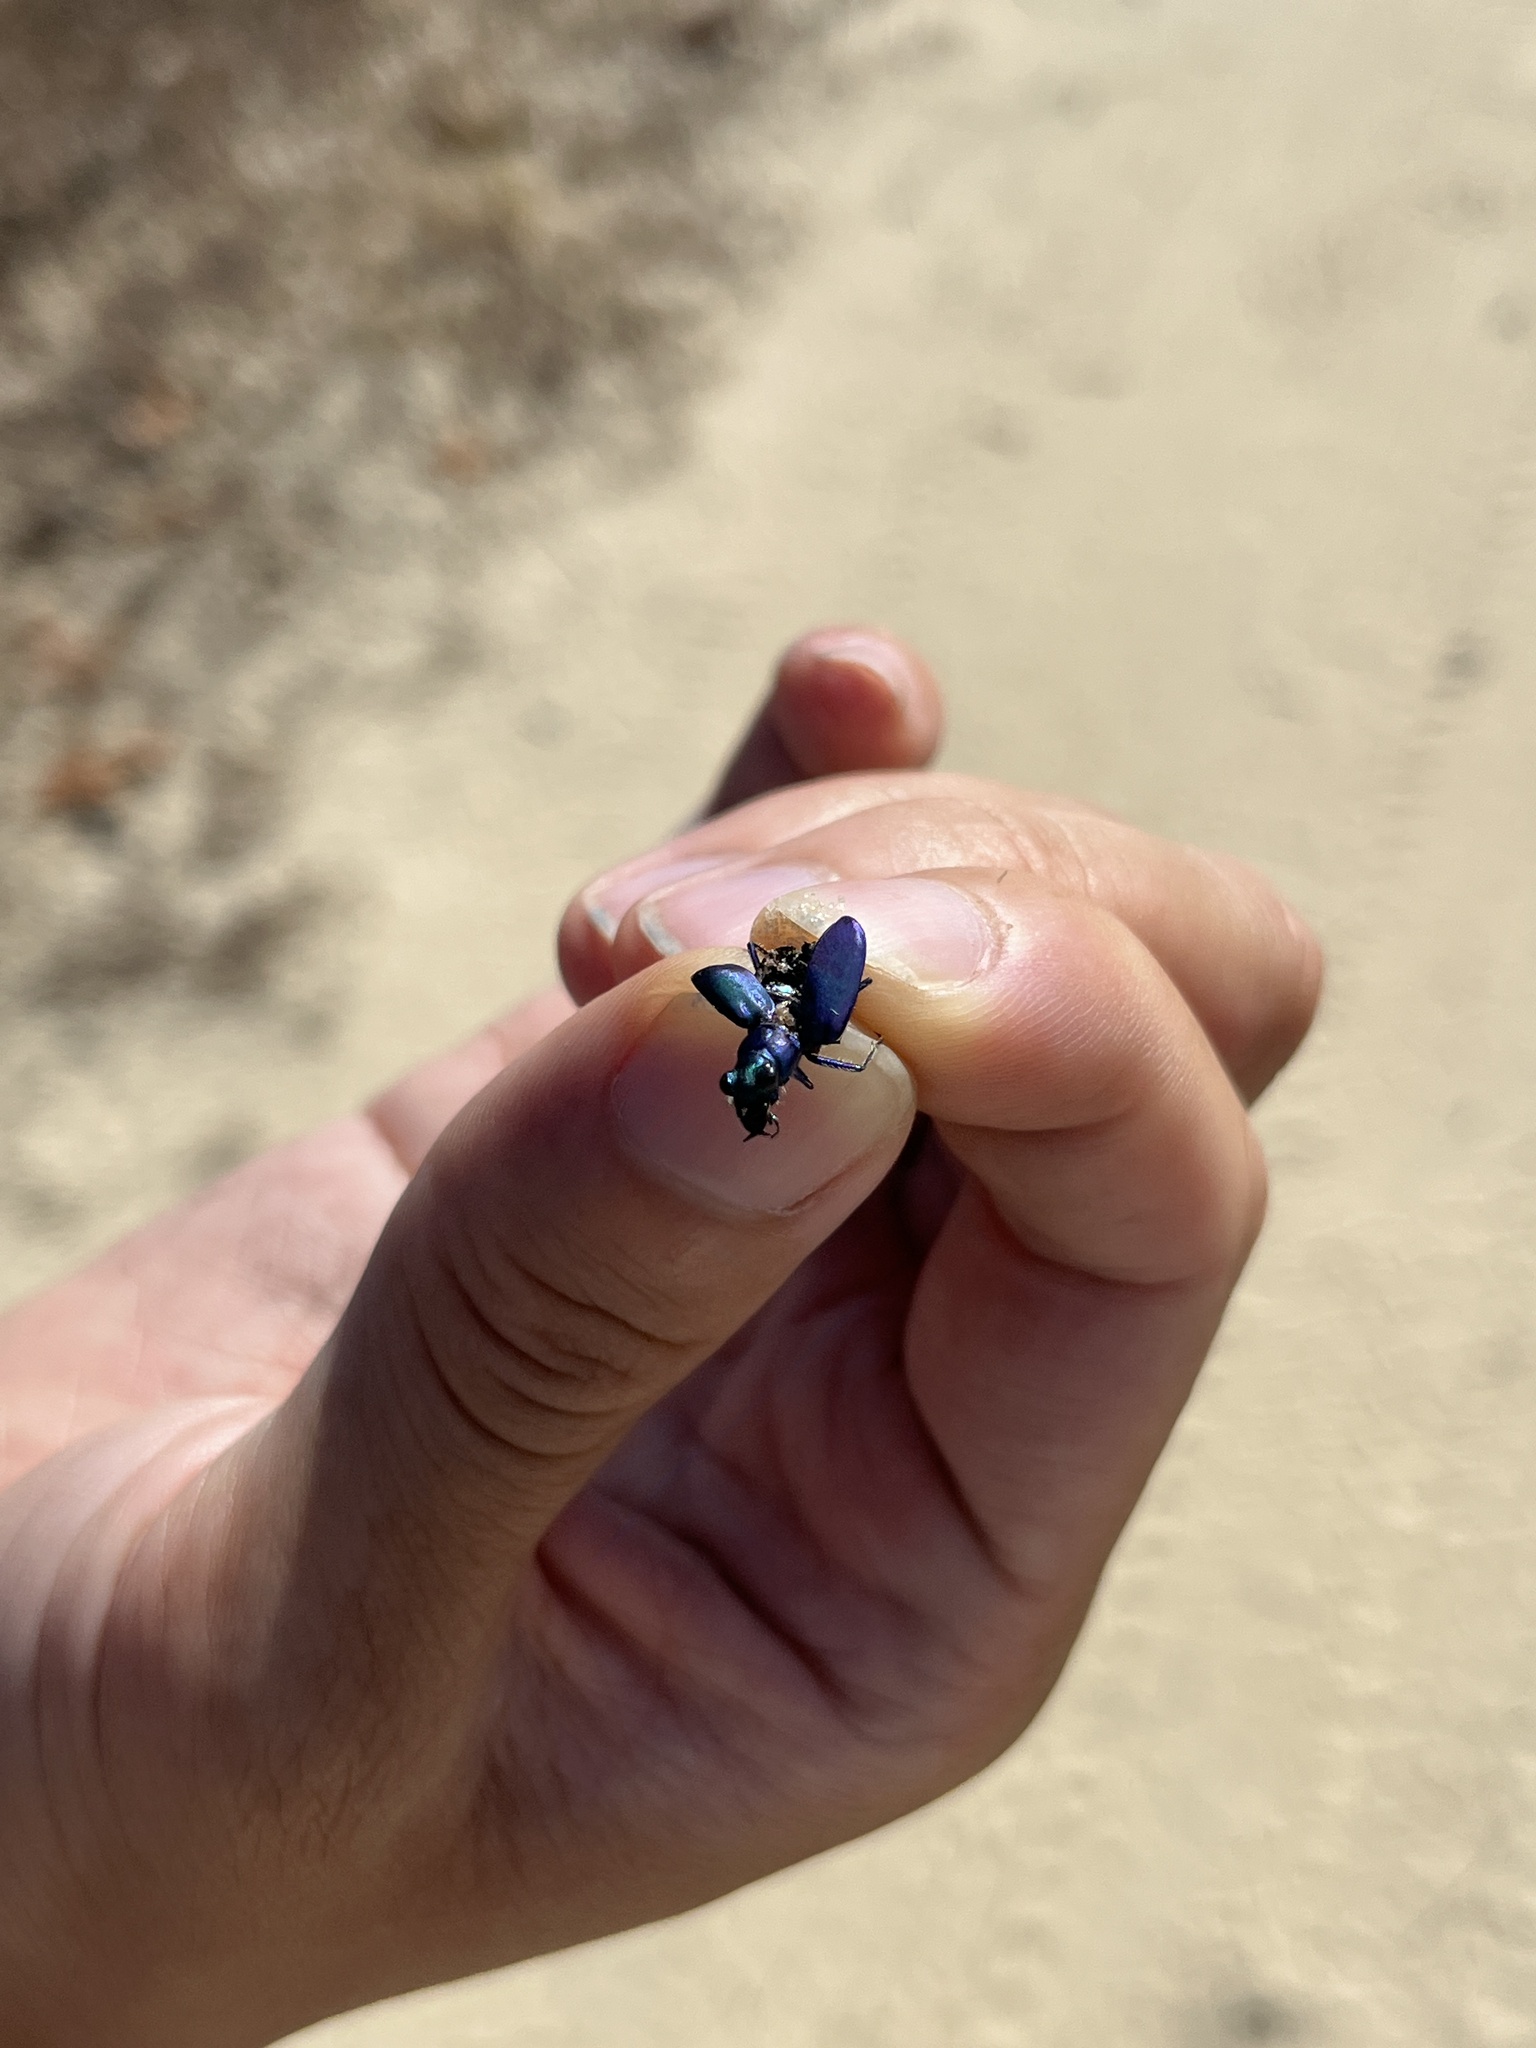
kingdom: Animalia
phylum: Arthropoda
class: Insecta
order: Coleoptera
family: Carabidae
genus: Cicindela
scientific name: Cicindela nigrior
